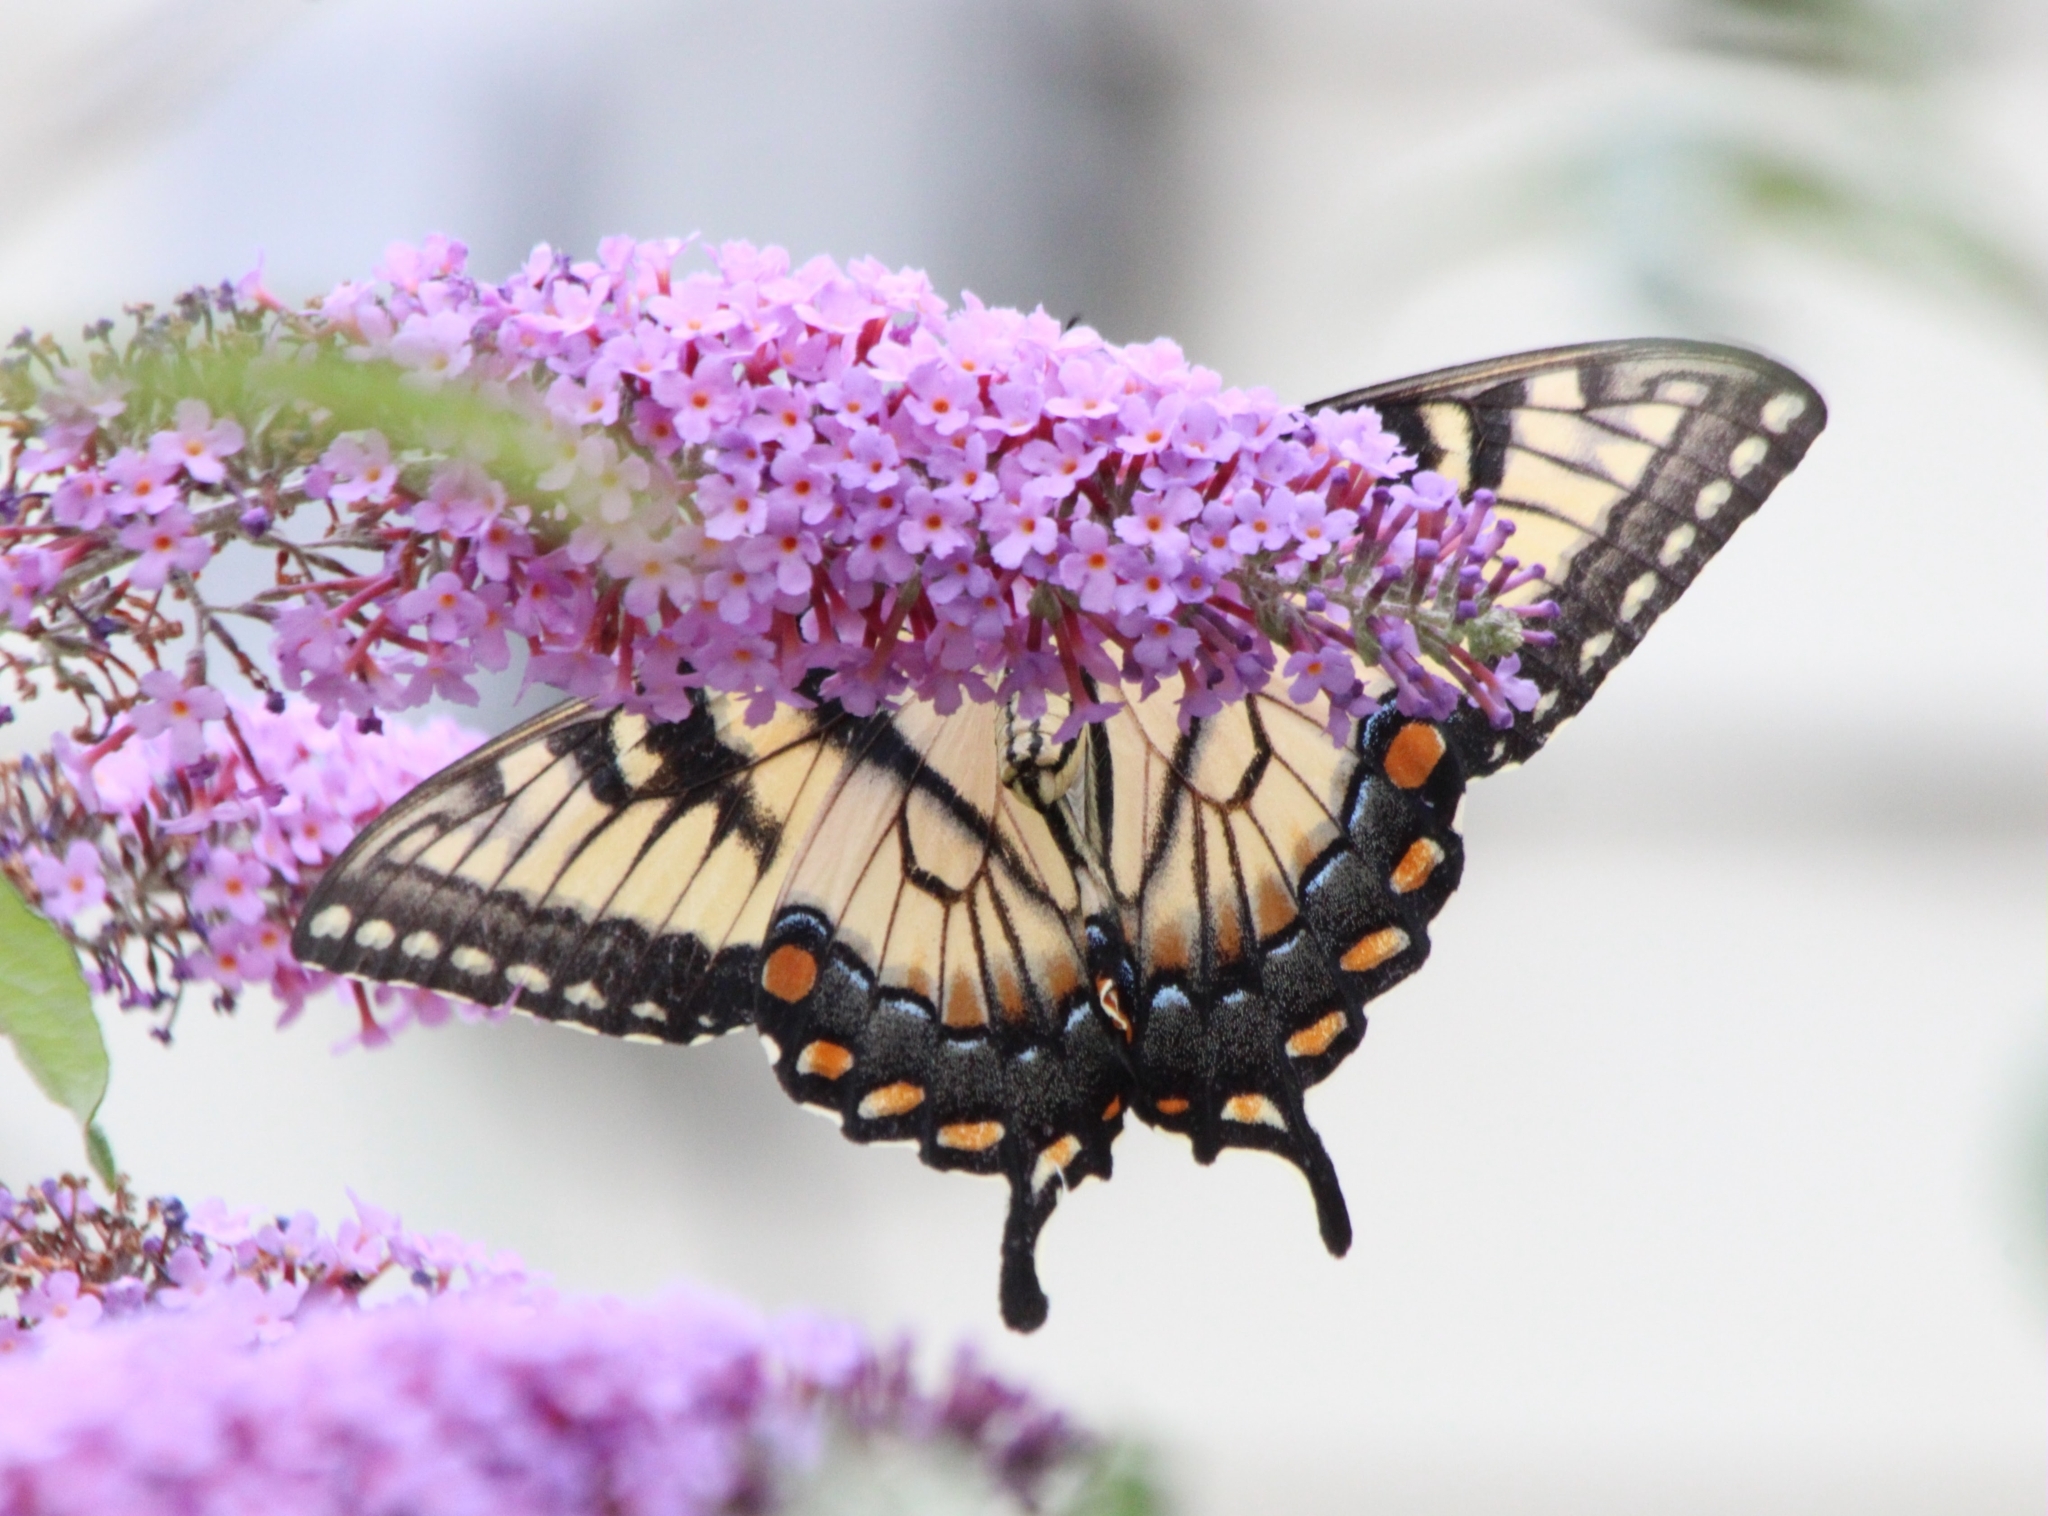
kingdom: Animalia
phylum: Arthropoda
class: Insecta
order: Lepidoptera
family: Papilionidae
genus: Papilio
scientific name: Papilio glaucus
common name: Tiger swallowtail
